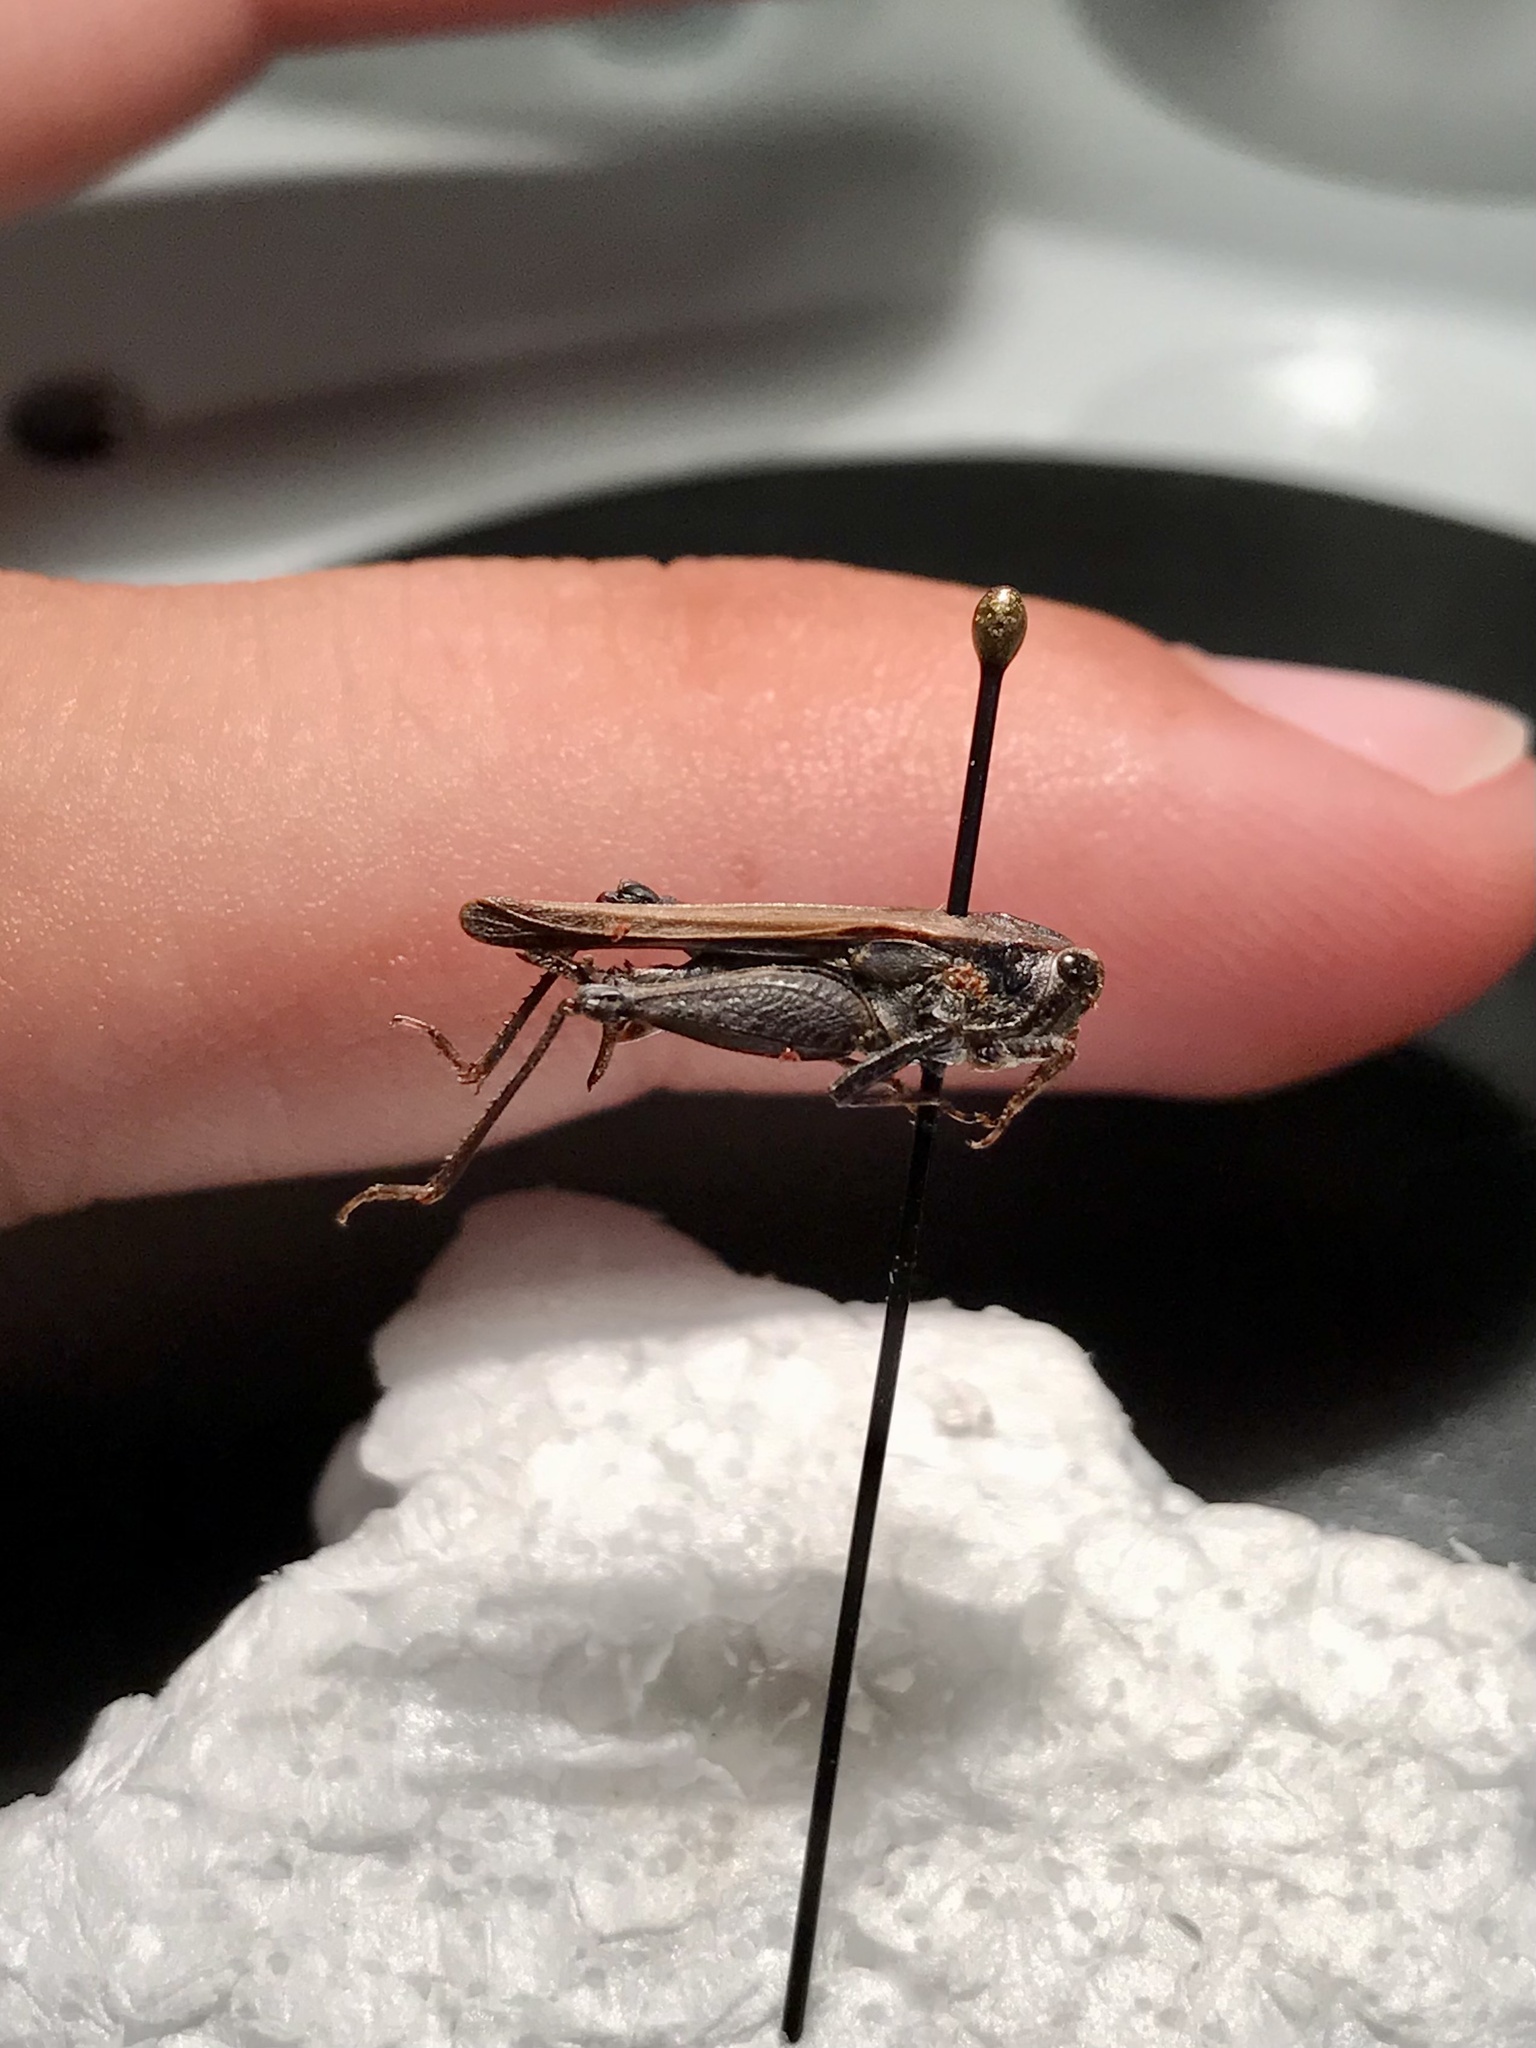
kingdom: Animalia
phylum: Arthropoda
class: Insecta
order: Orthoptera
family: Tetrigidae
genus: Tettigidea
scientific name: Tettigidea laterale
